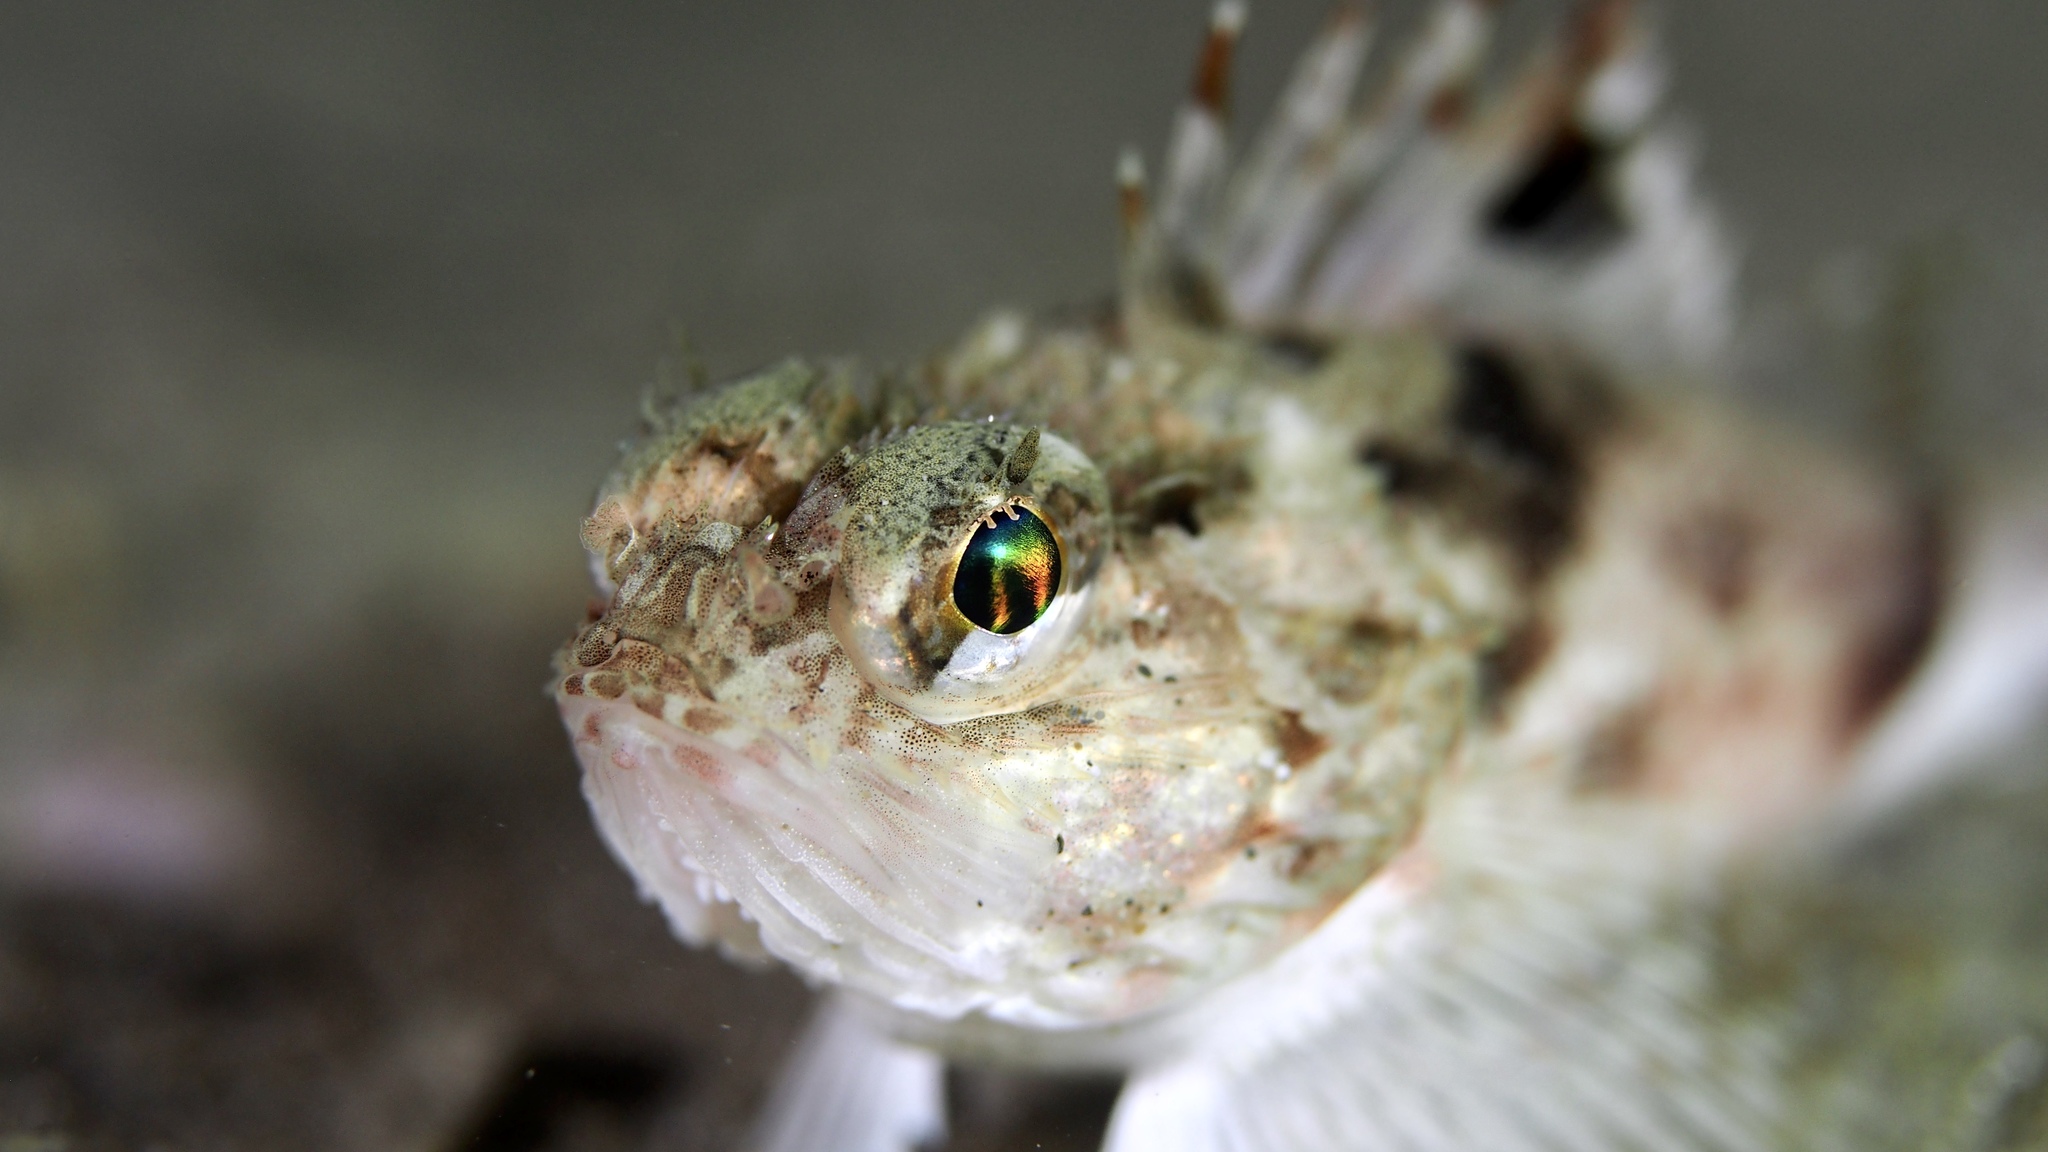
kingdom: Animalia
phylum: Chordata
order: Scorpaeniformes
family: Neosebastidae
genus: Maxillicosta
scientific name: Maxillicosta scabriceps
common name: Little gurnard perch
